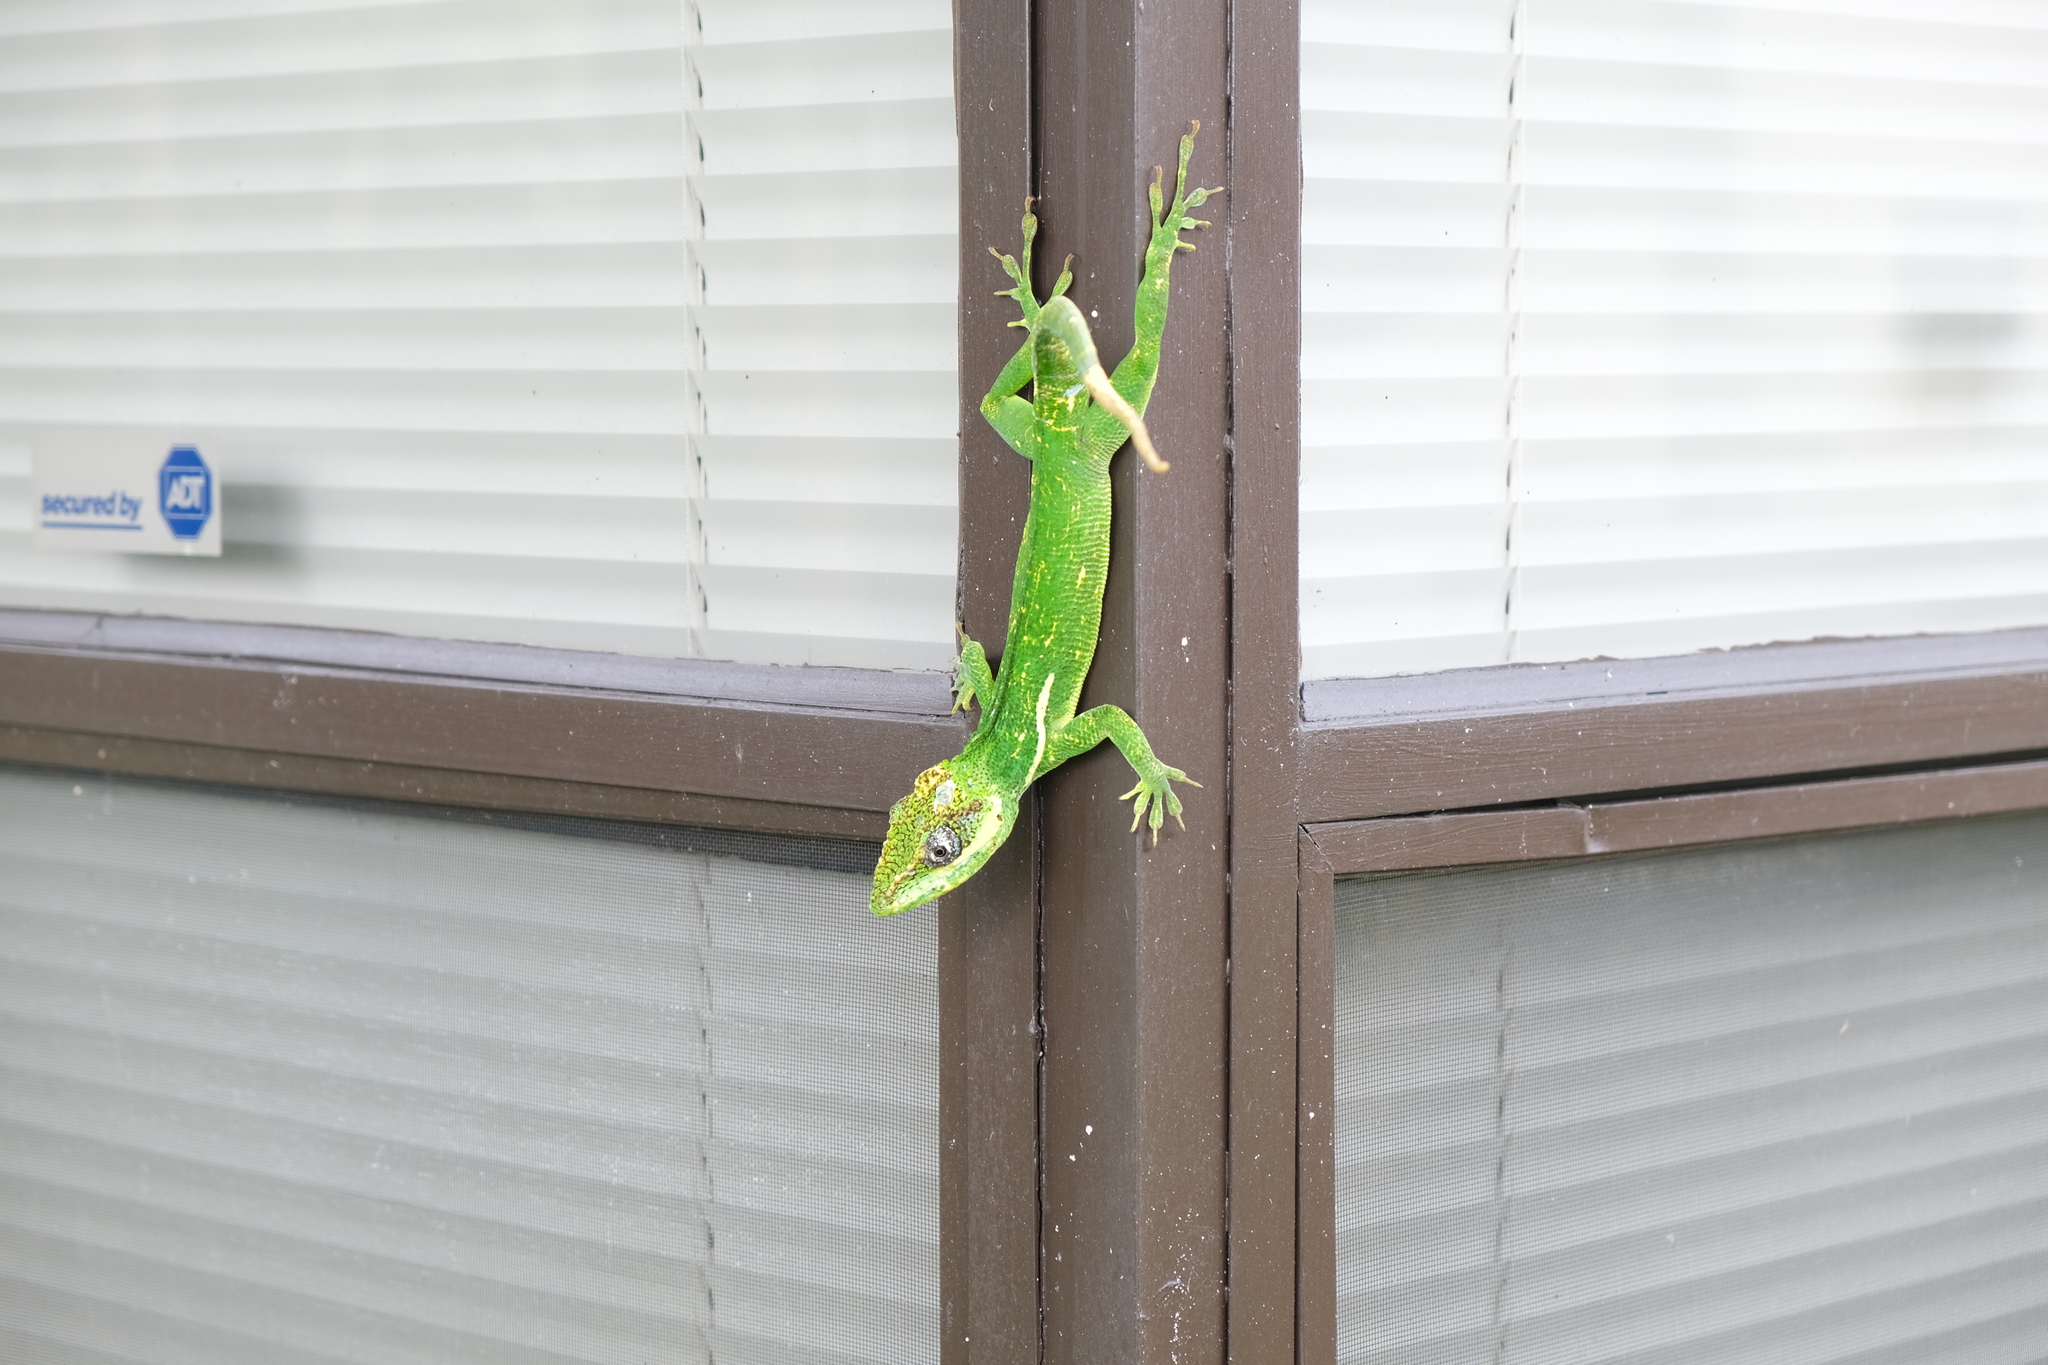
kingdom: Animalia
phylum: Chordata
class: Squamata
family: Dactyloidae
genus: Anolis
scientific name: Anolis equestris
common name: Knight anole
